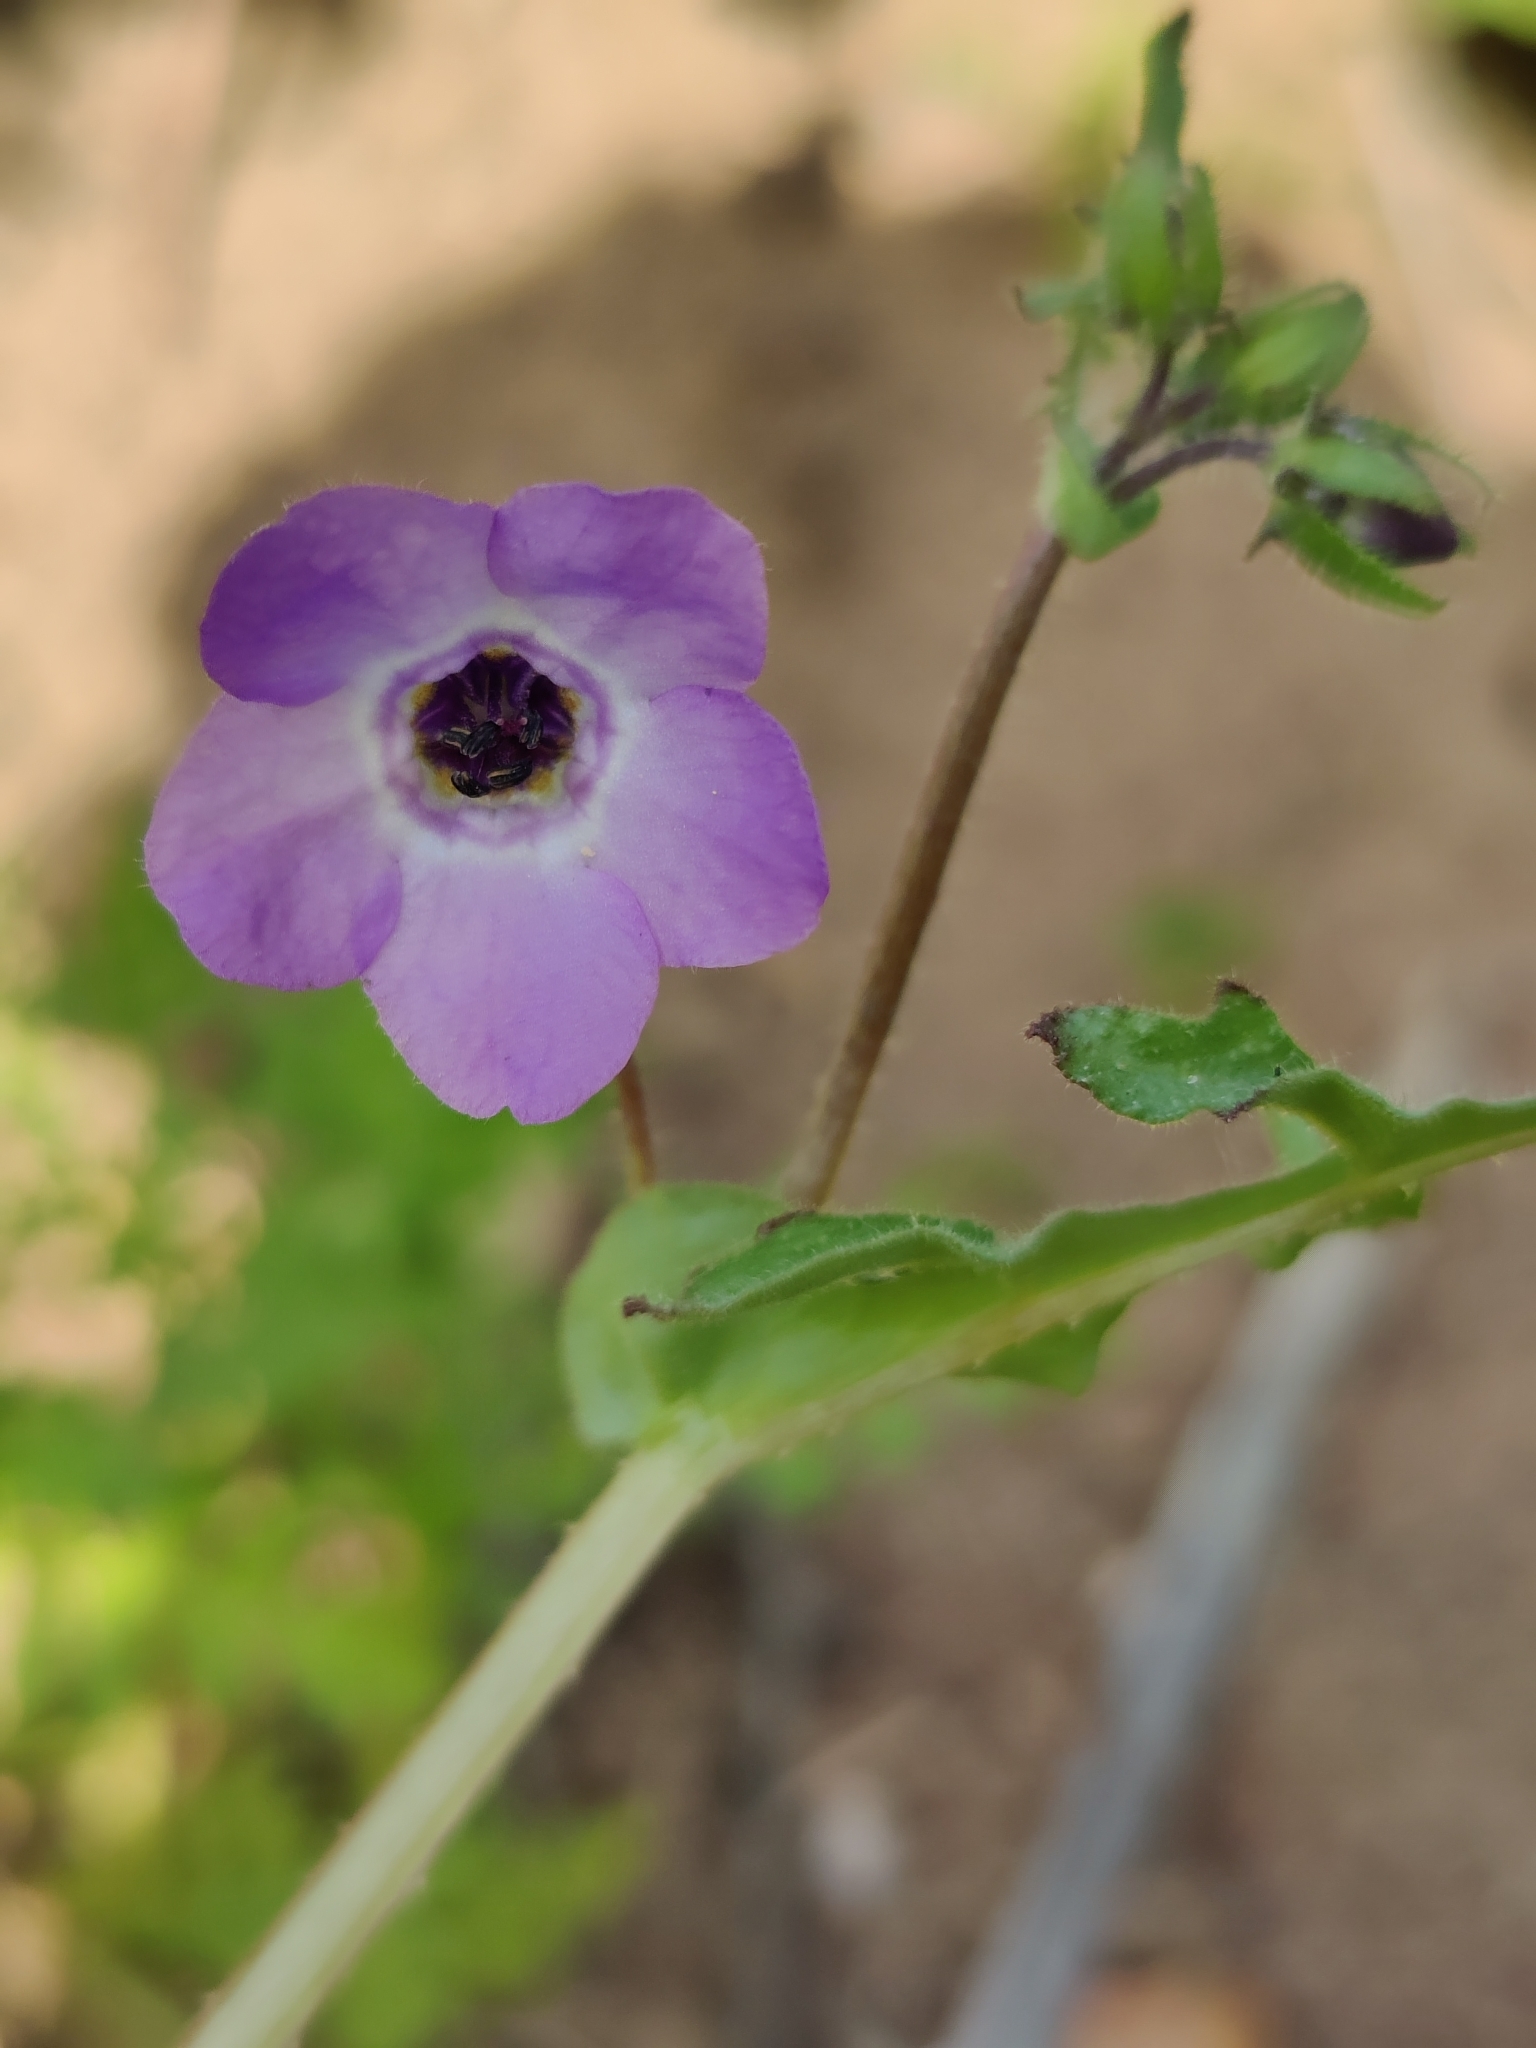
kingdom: Plantae
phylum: Tracheophyta
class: Magnoliopsida
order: Boraginales
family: Hydrophyllaceae
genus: Pholistoma
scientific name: Pholistoma auritum
